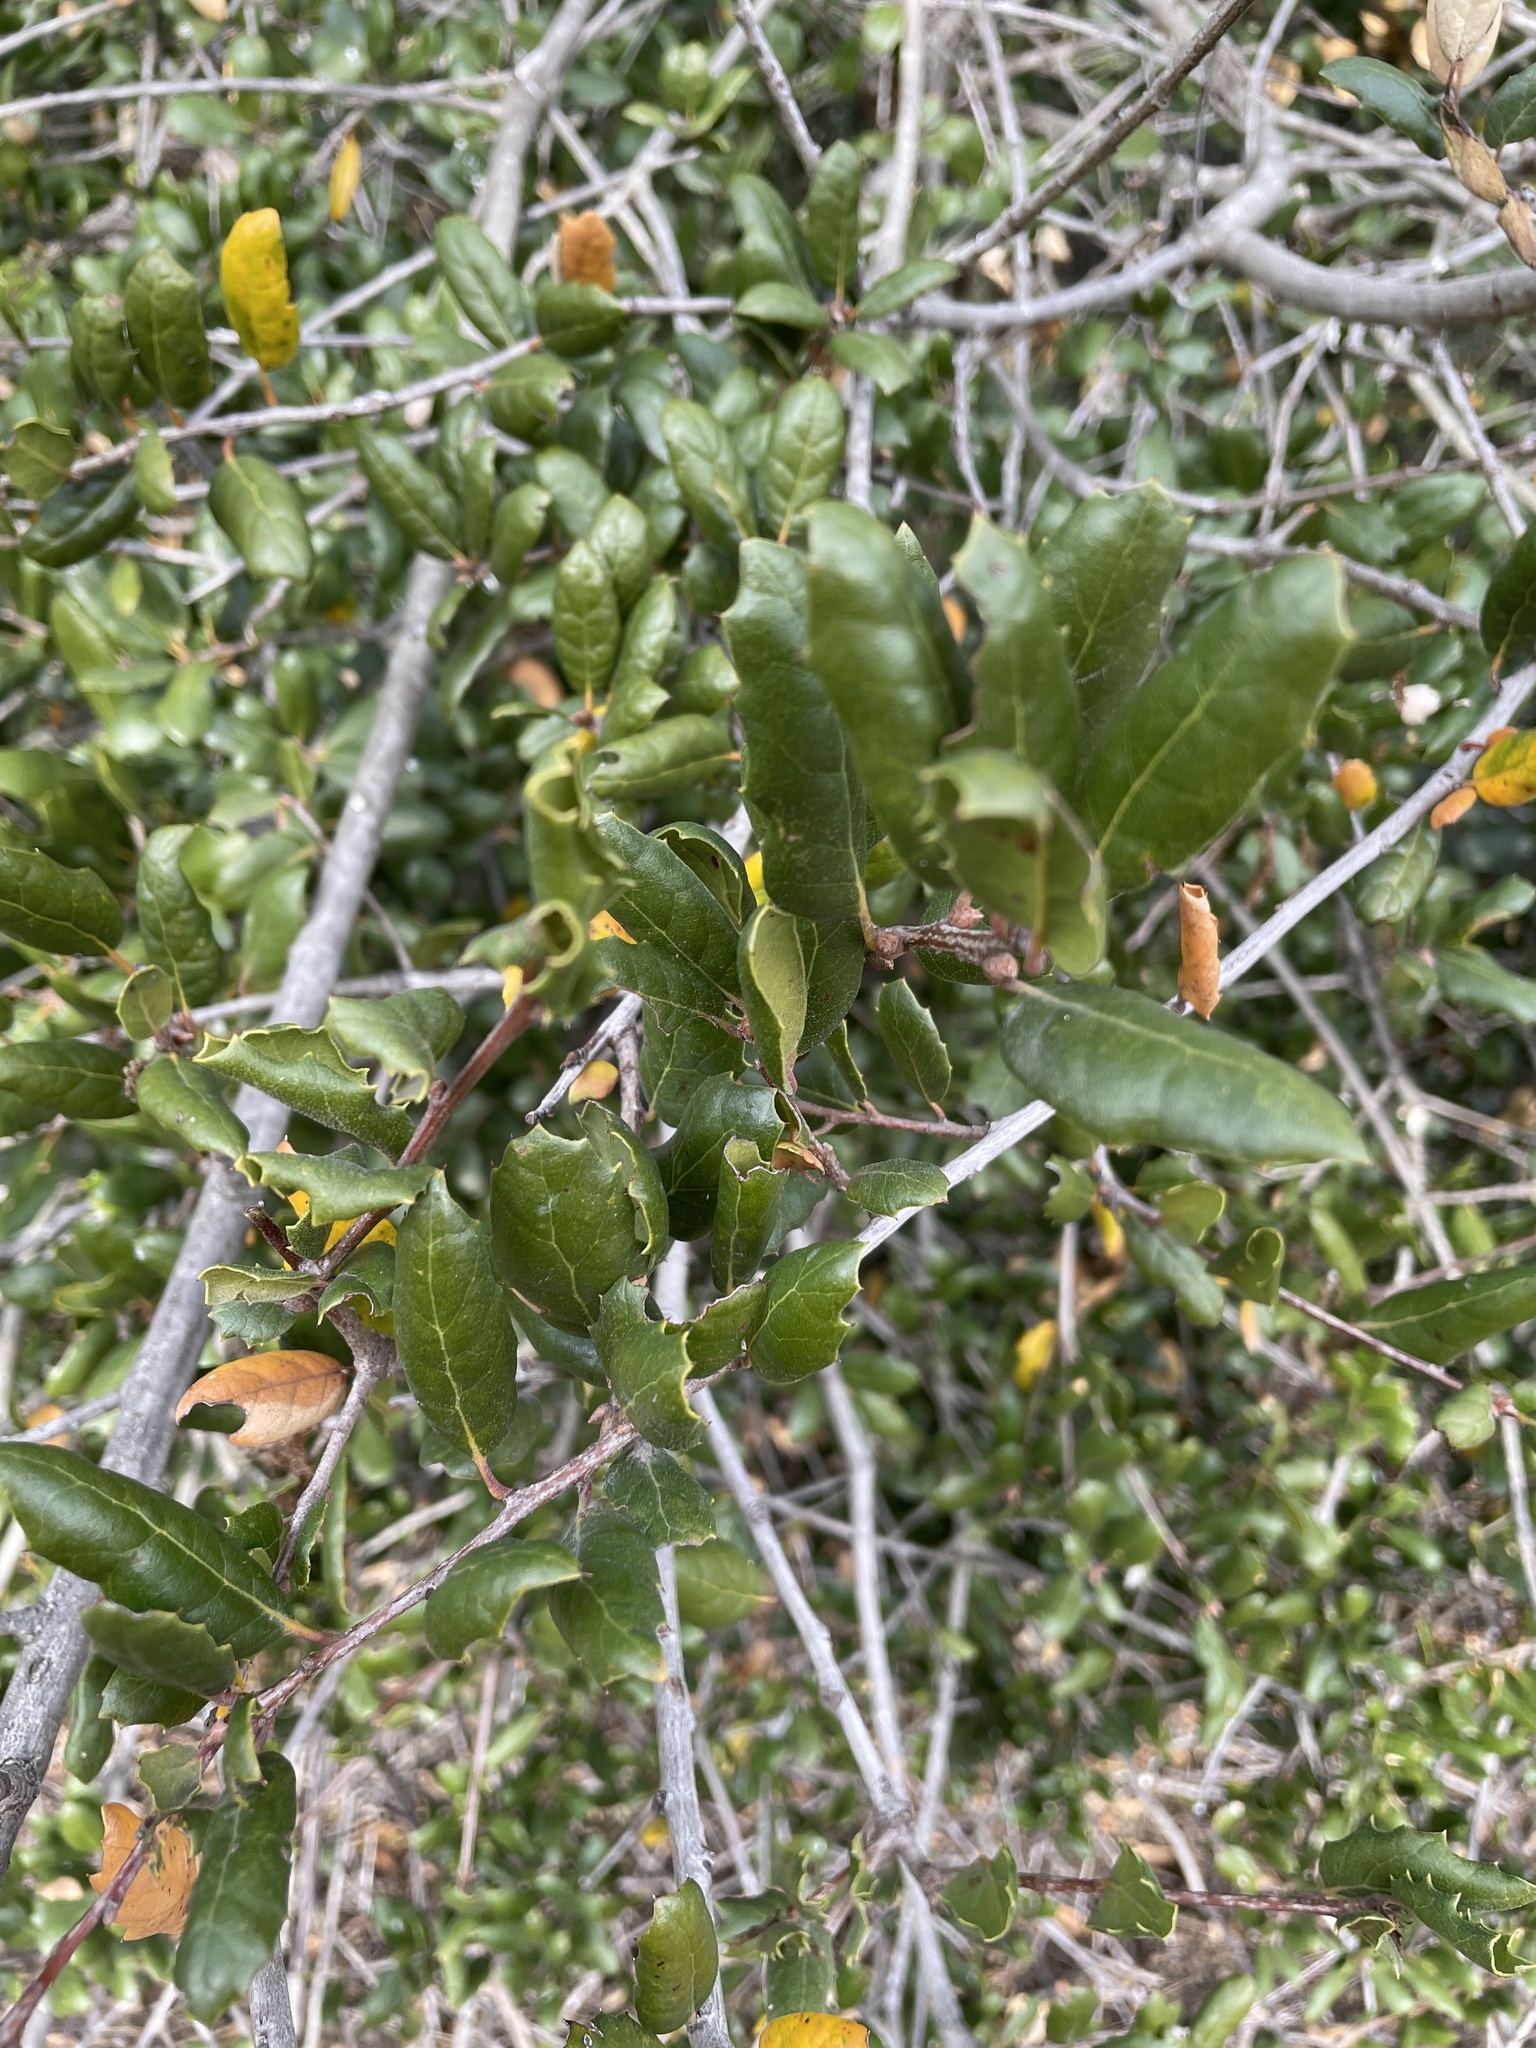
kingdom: Plantae
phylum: Tracheophyta
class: Magnoliopsida
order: Fagales
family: Fagaceae
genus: Quercus
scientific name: Quercus agrifolia
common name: California live oak
